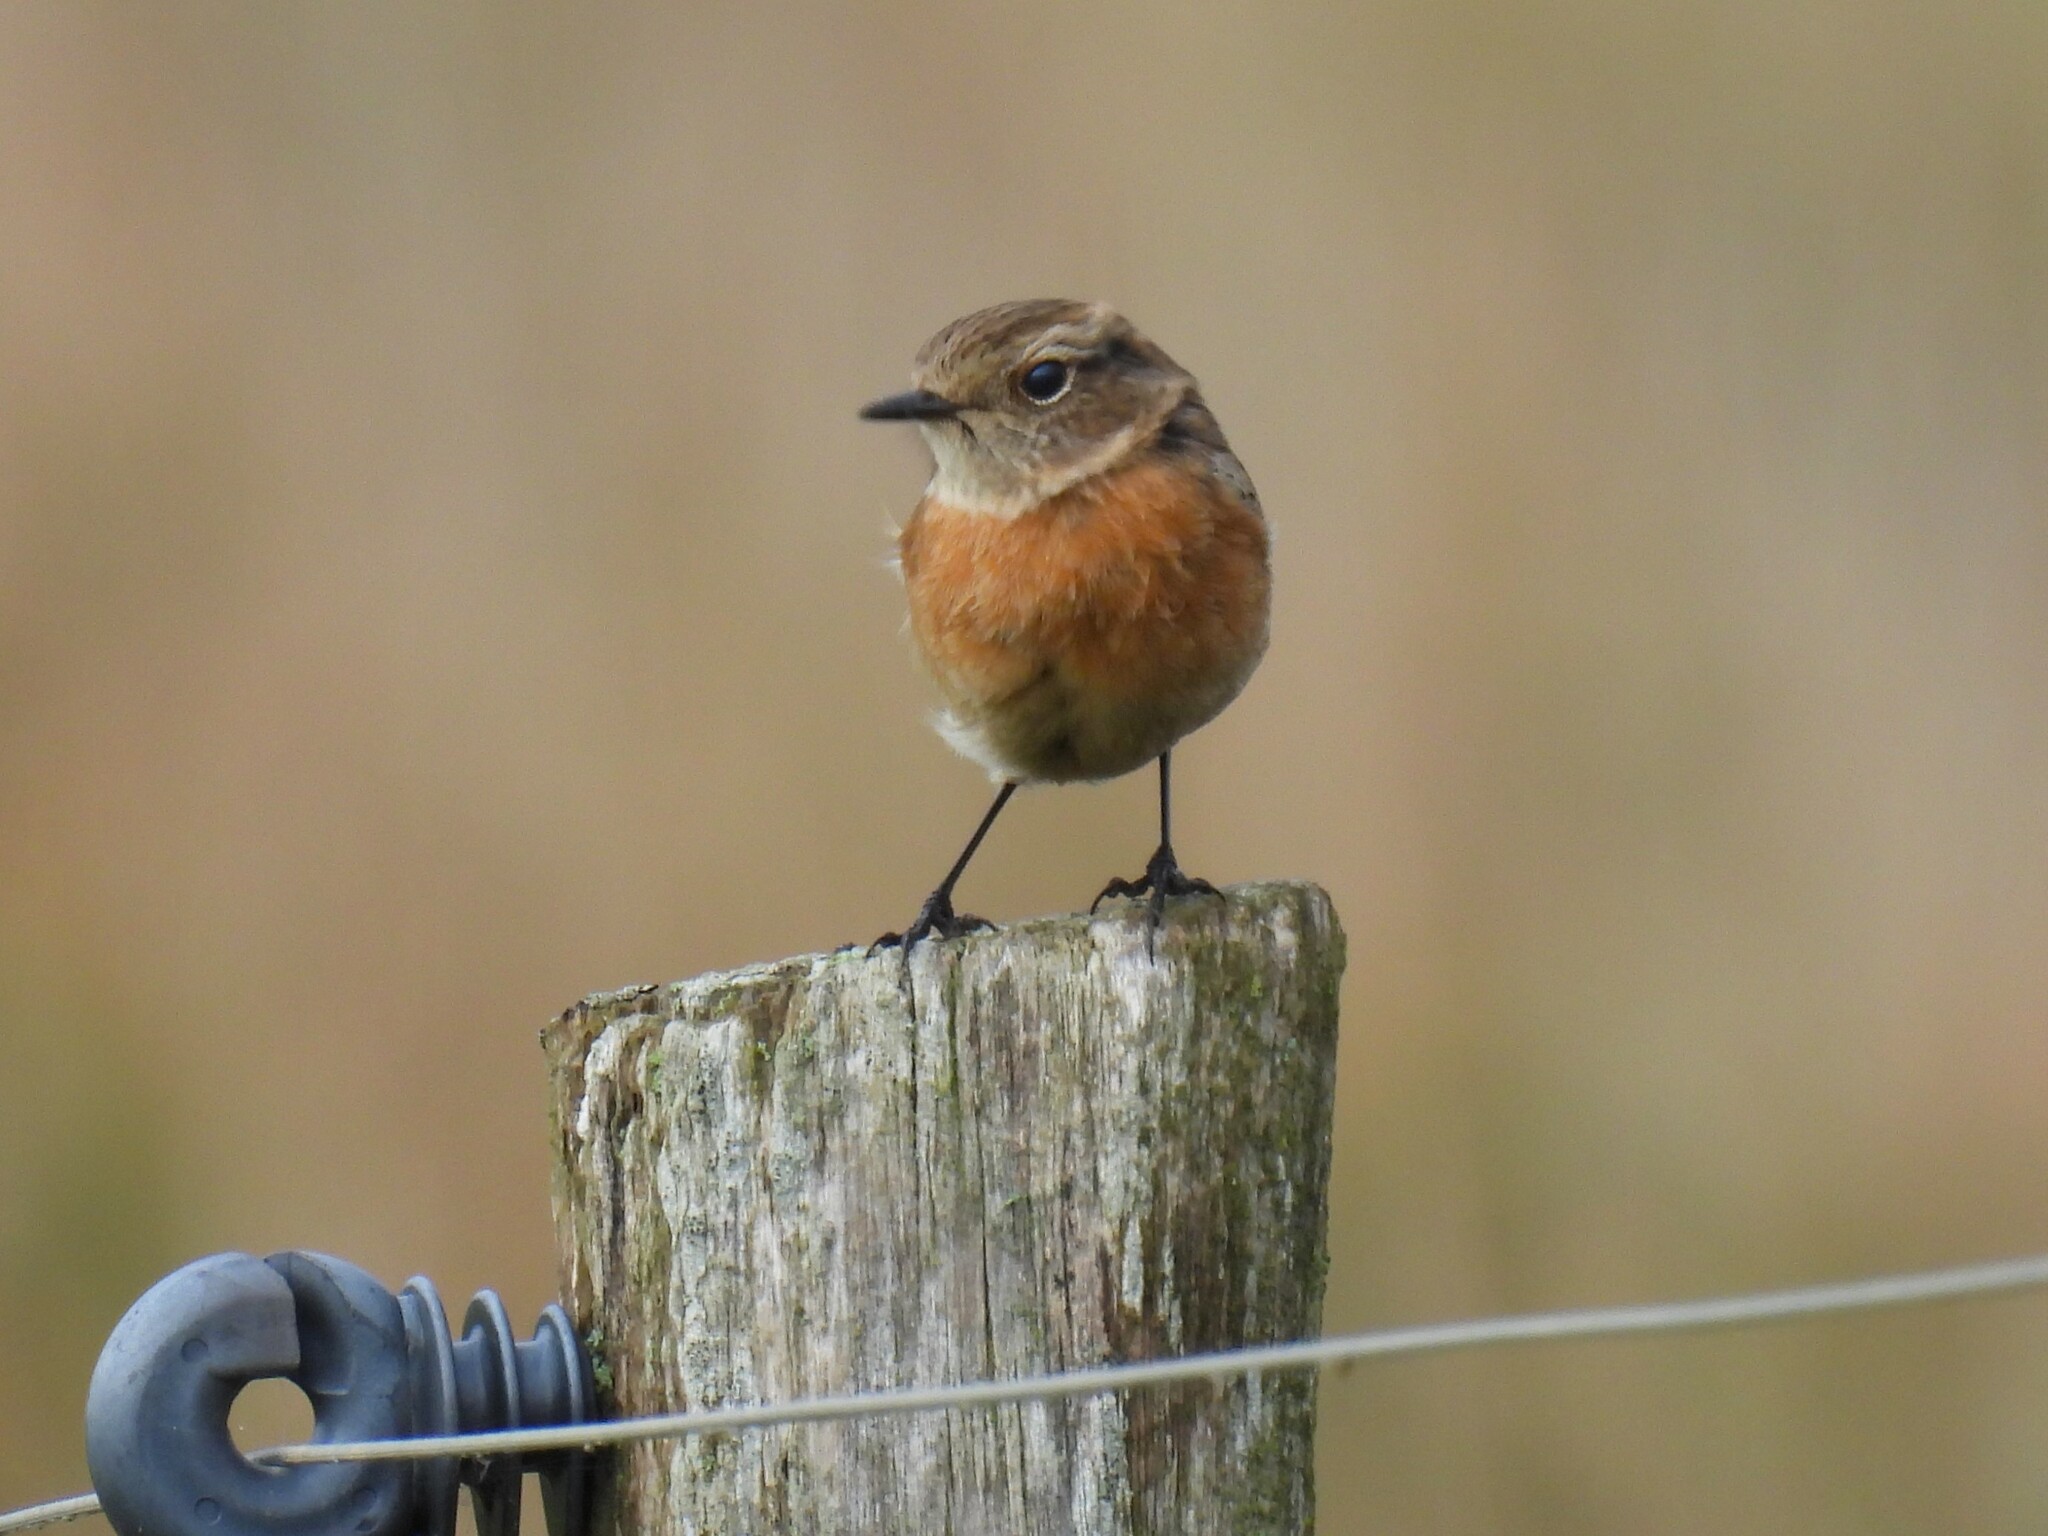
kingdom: Animalia
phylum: Chordata
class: Aves
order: Passeriformes
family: Muscicapidae
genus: Saxicola
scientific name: Saxicola rubicola
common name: European stonechat
